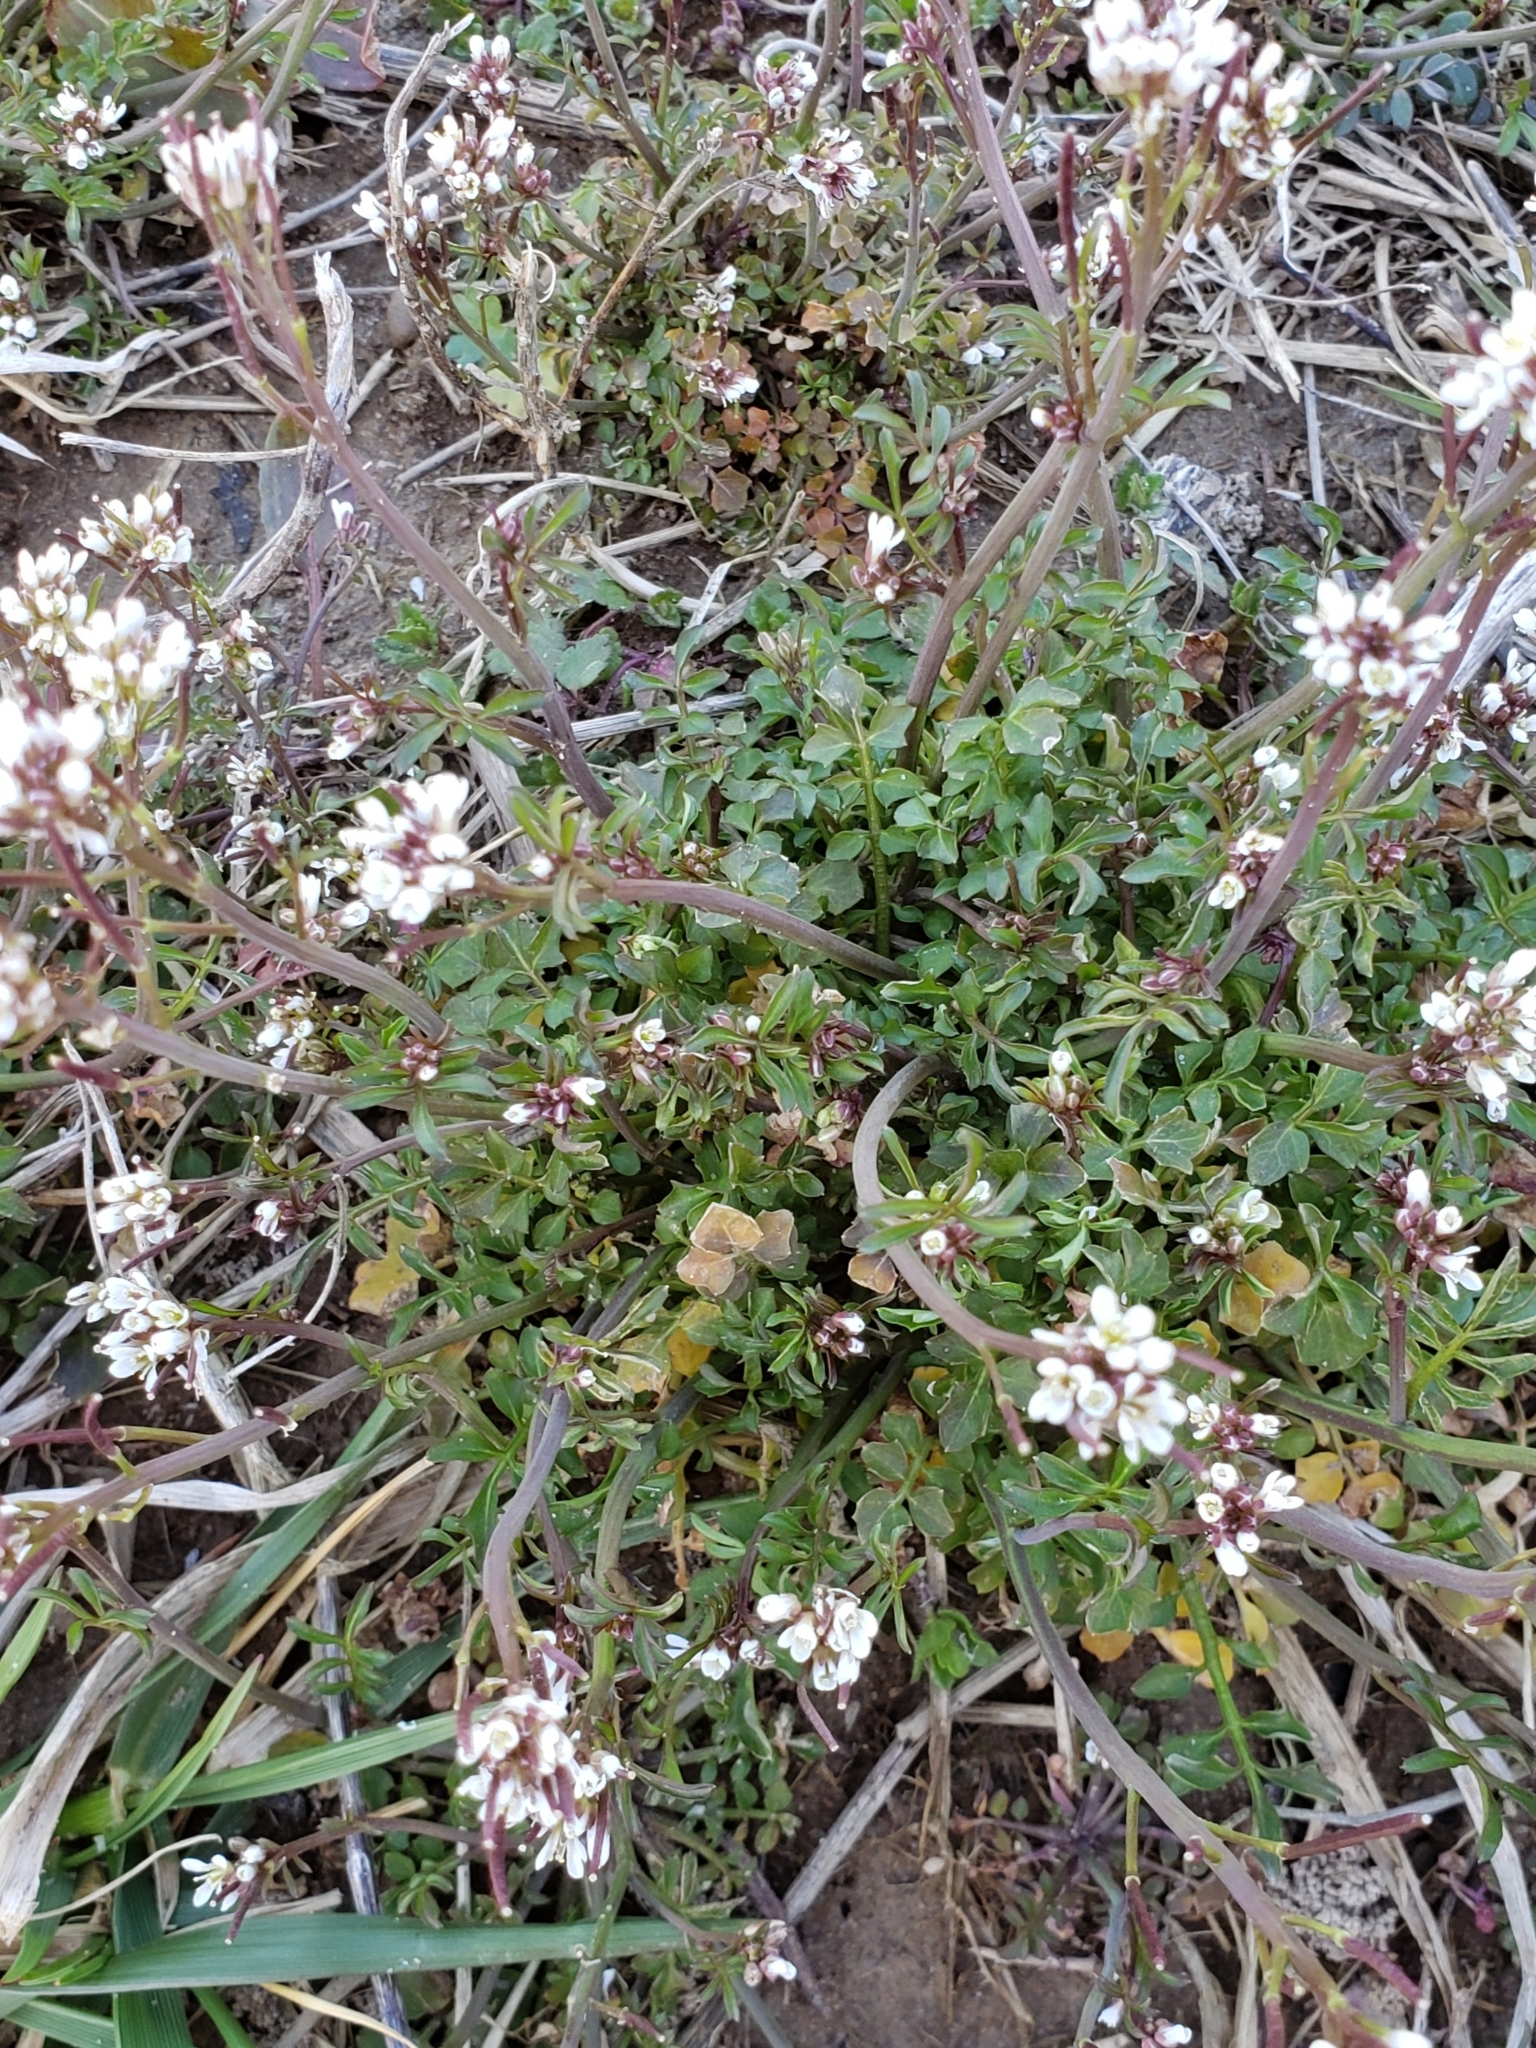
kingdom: Plantae
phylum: Tracheophyta
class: Magnoliopsida
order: Brassicales
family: Brassicaceae
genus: Cardamine
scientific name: Cardamine hirsuta
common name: Hairy bittercress
